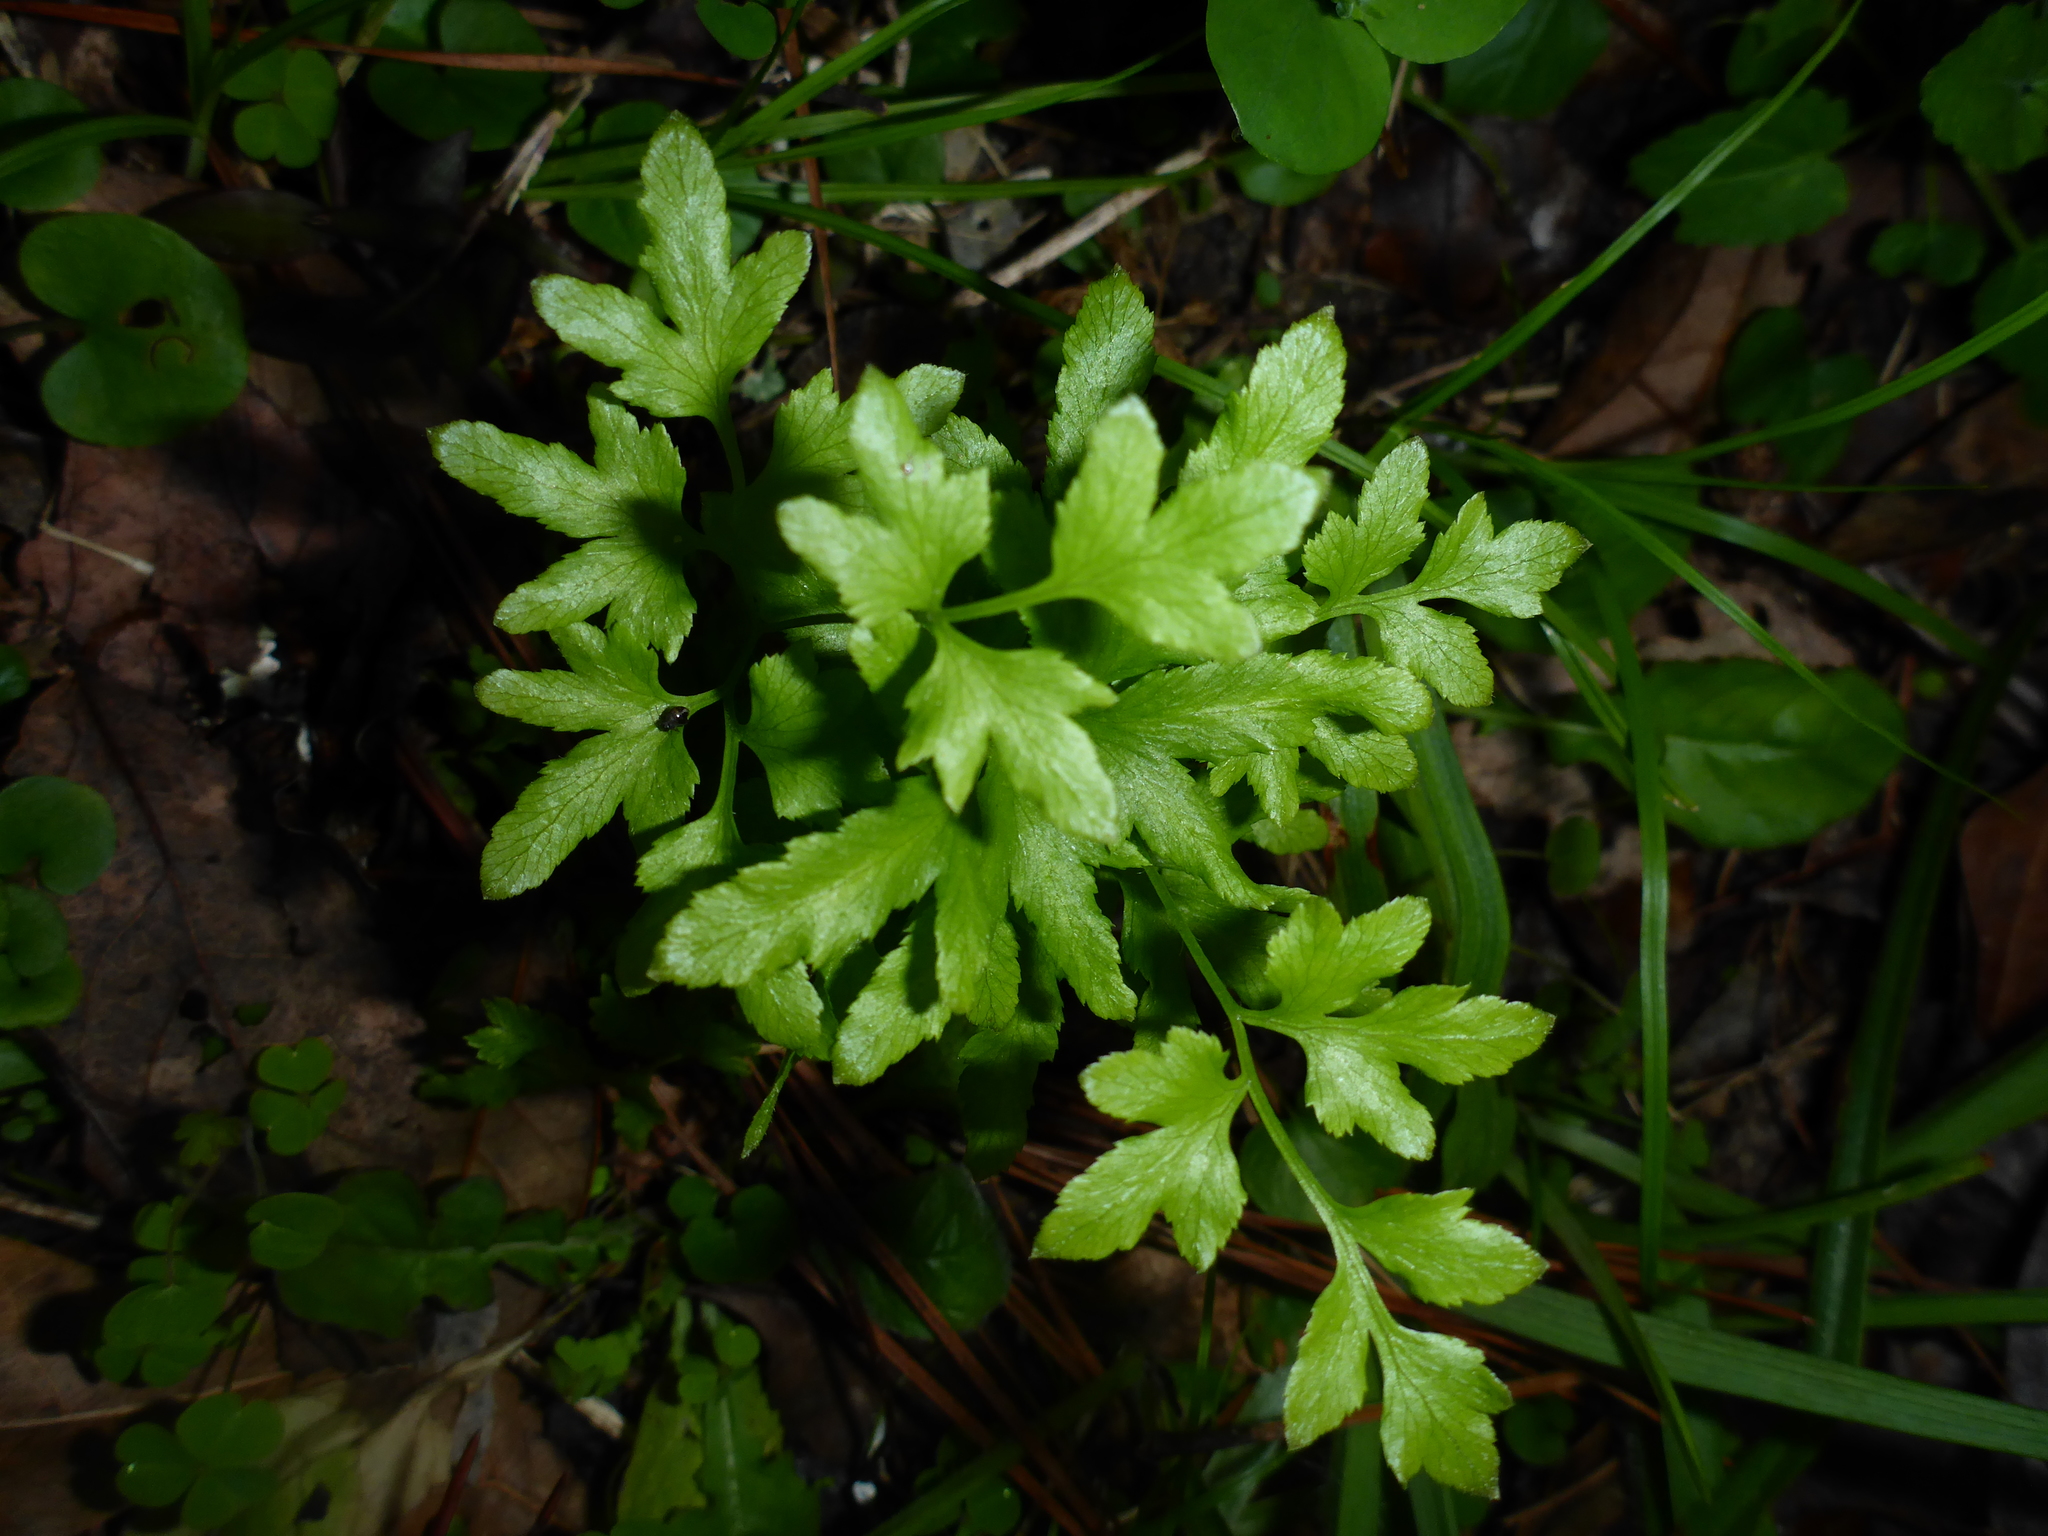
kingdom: Plantae
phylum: Tracheophyta
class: Polypodiopsida
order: Schizaeales
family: Lygodiaceae
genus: Lygodium
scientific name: Lygodium japonicum
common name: Japanese climbing fern
